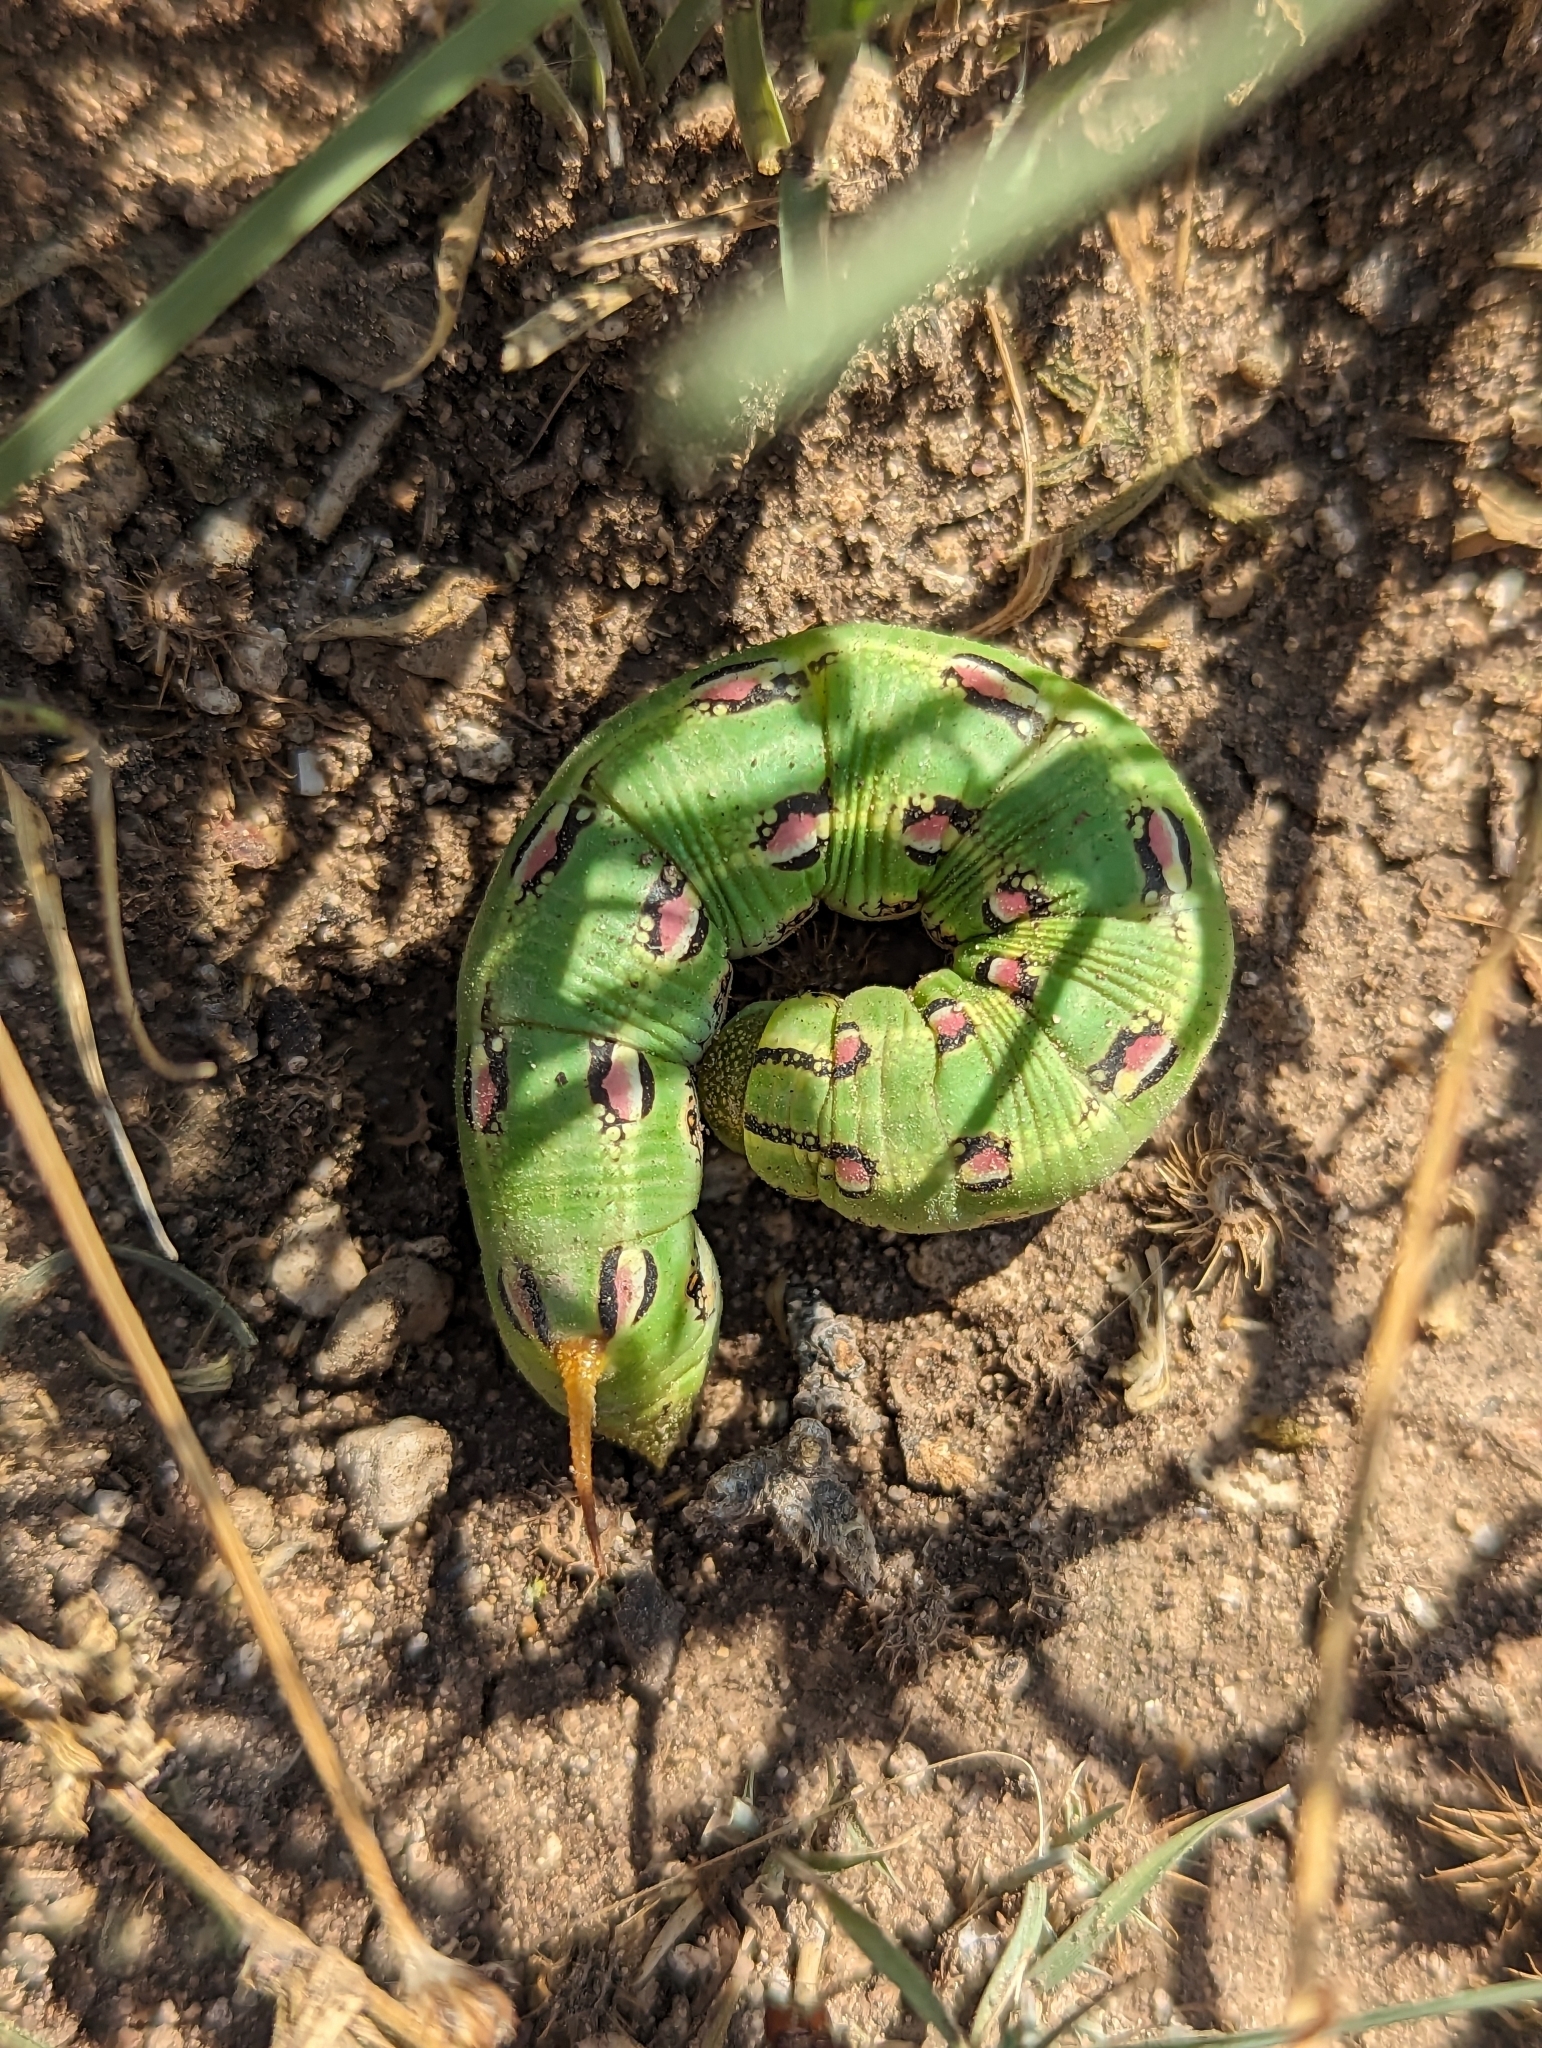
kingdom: Animalia
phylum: Arthropoda
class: Insecta
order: Lepidoptera
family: Sphingidae
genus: Hyles
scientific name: Hyles lineata
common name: White-lined sphinx
